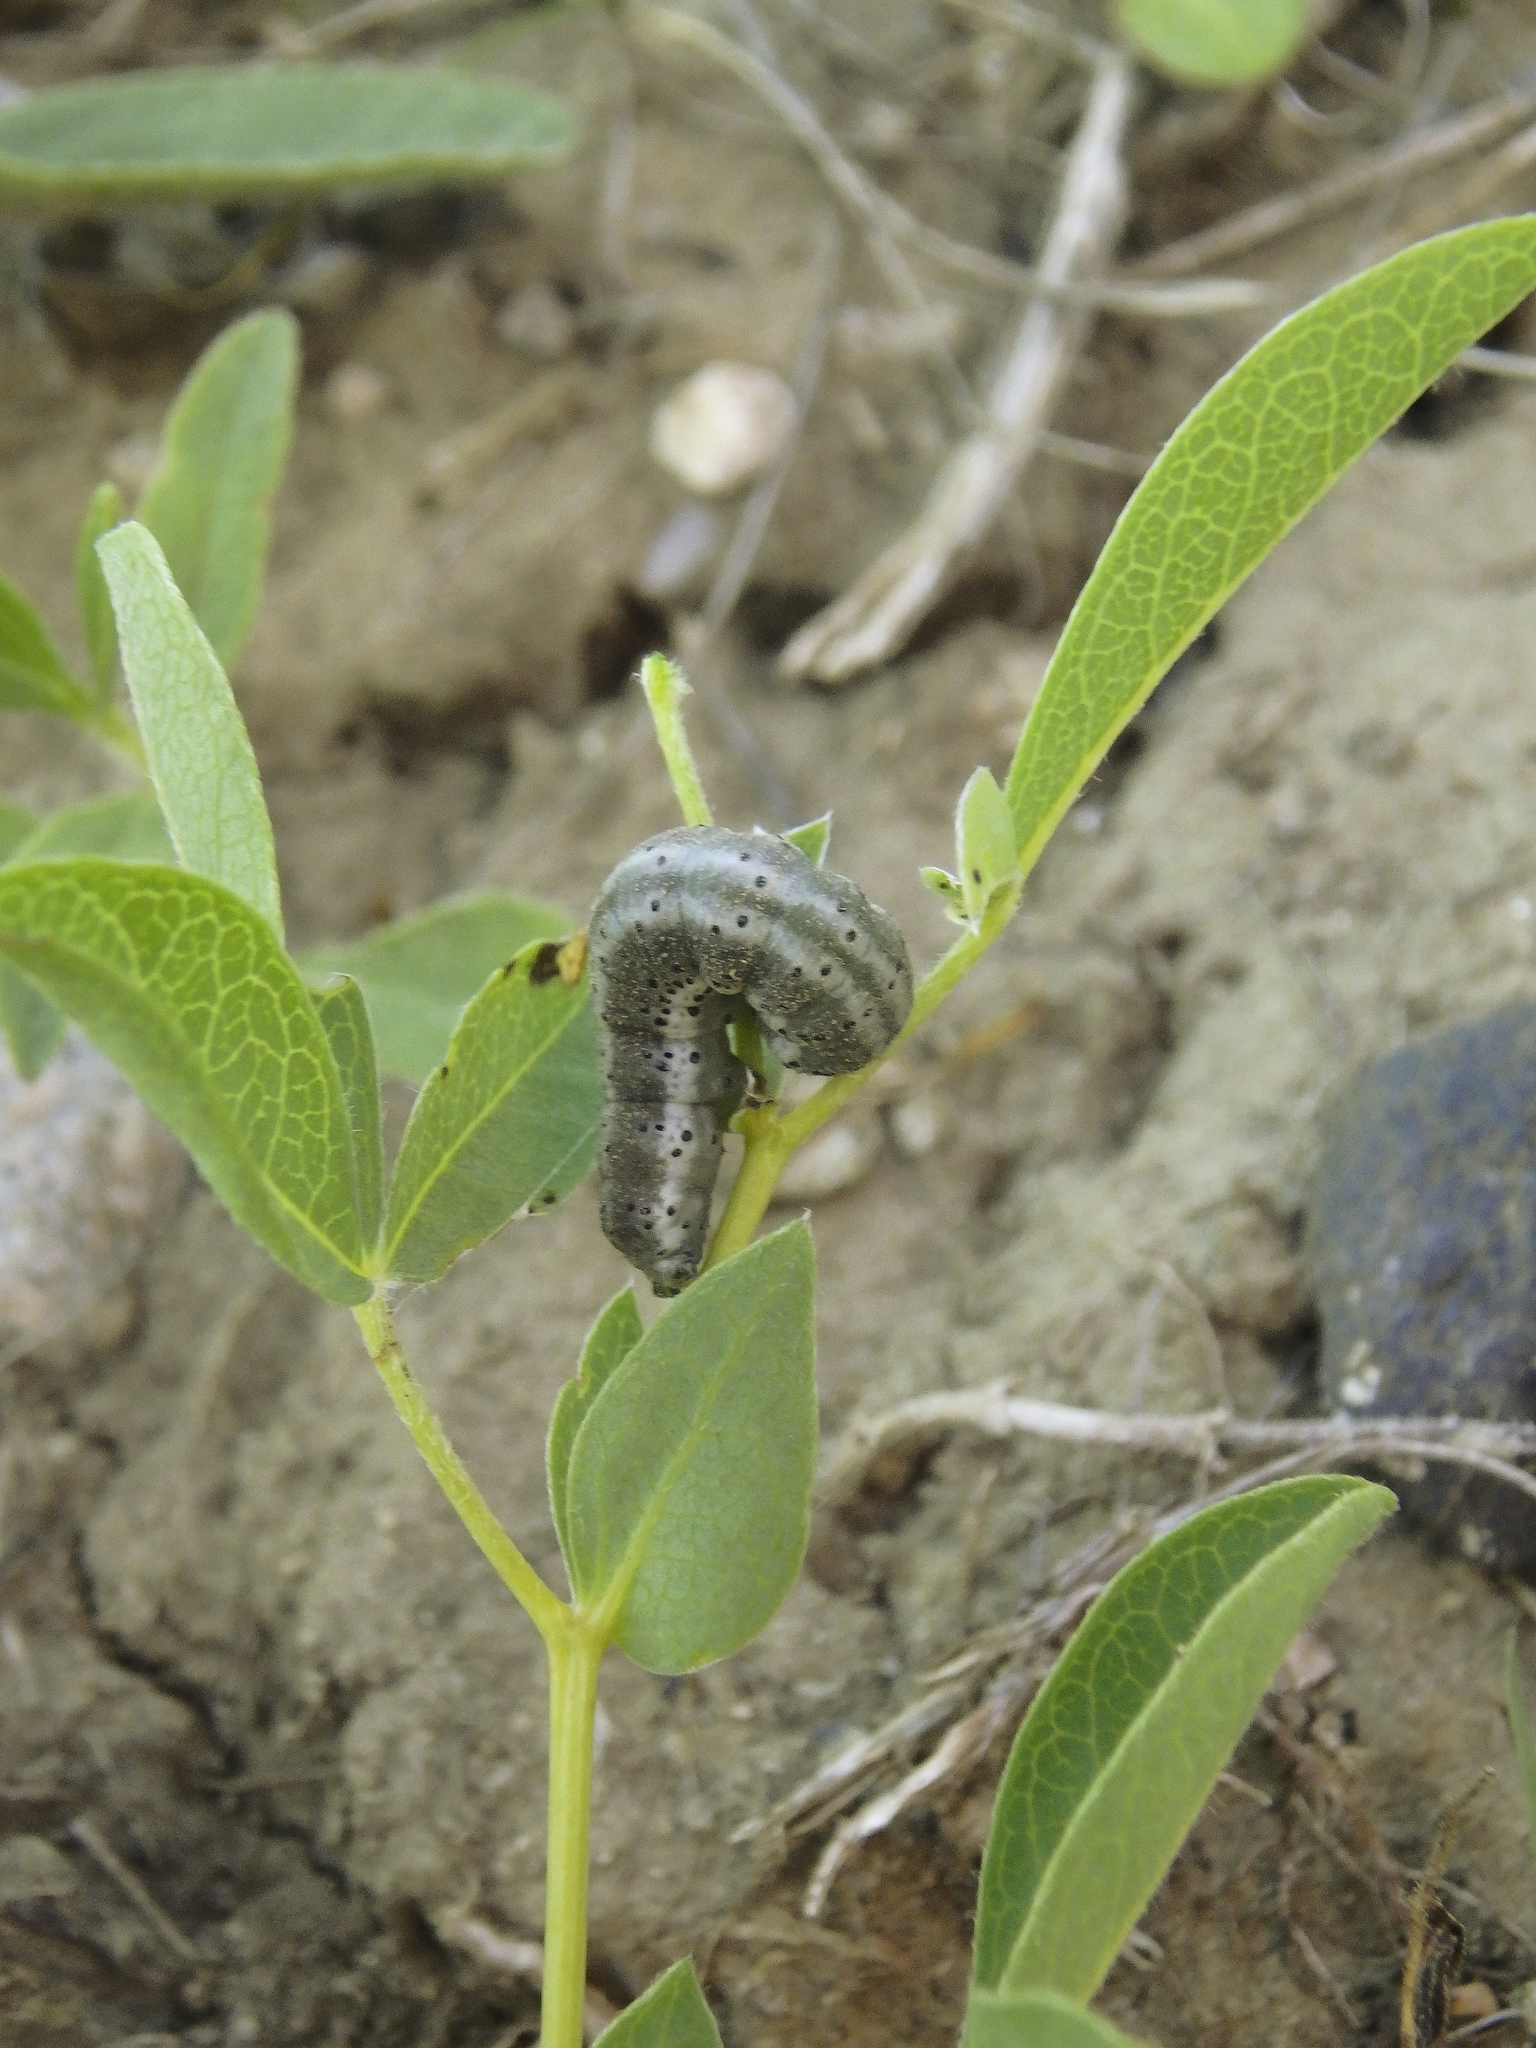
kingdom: Animalia
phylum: Arthropoda
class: Insecta
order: Lepidoptera
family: Pieridae
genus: Euchloe
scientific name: Euchloe ausonides
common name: Creamy marblewing
